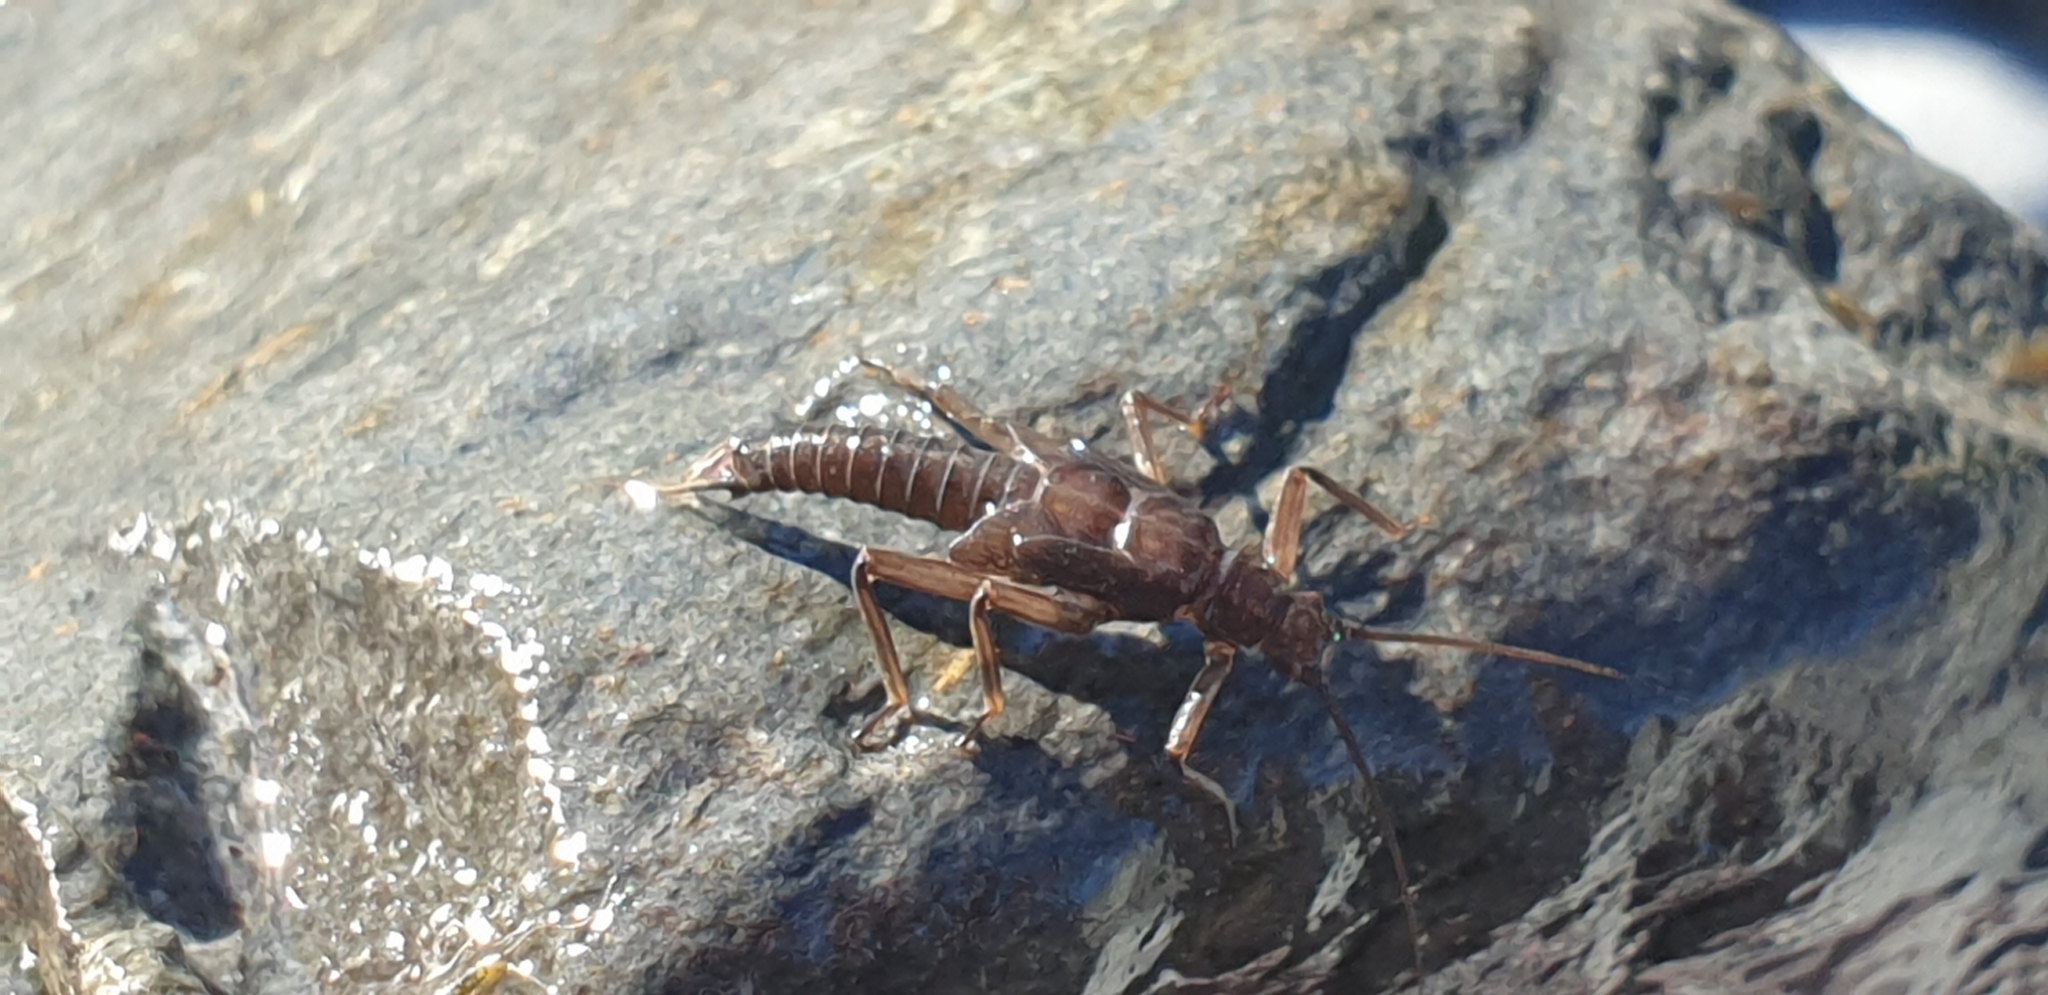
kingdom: Animalia
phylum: Arthropoda
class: Insecta
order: Plecoptera
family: Gripopterygidae
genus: Megaleptoperla
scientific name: Megaleptoperla grandis
